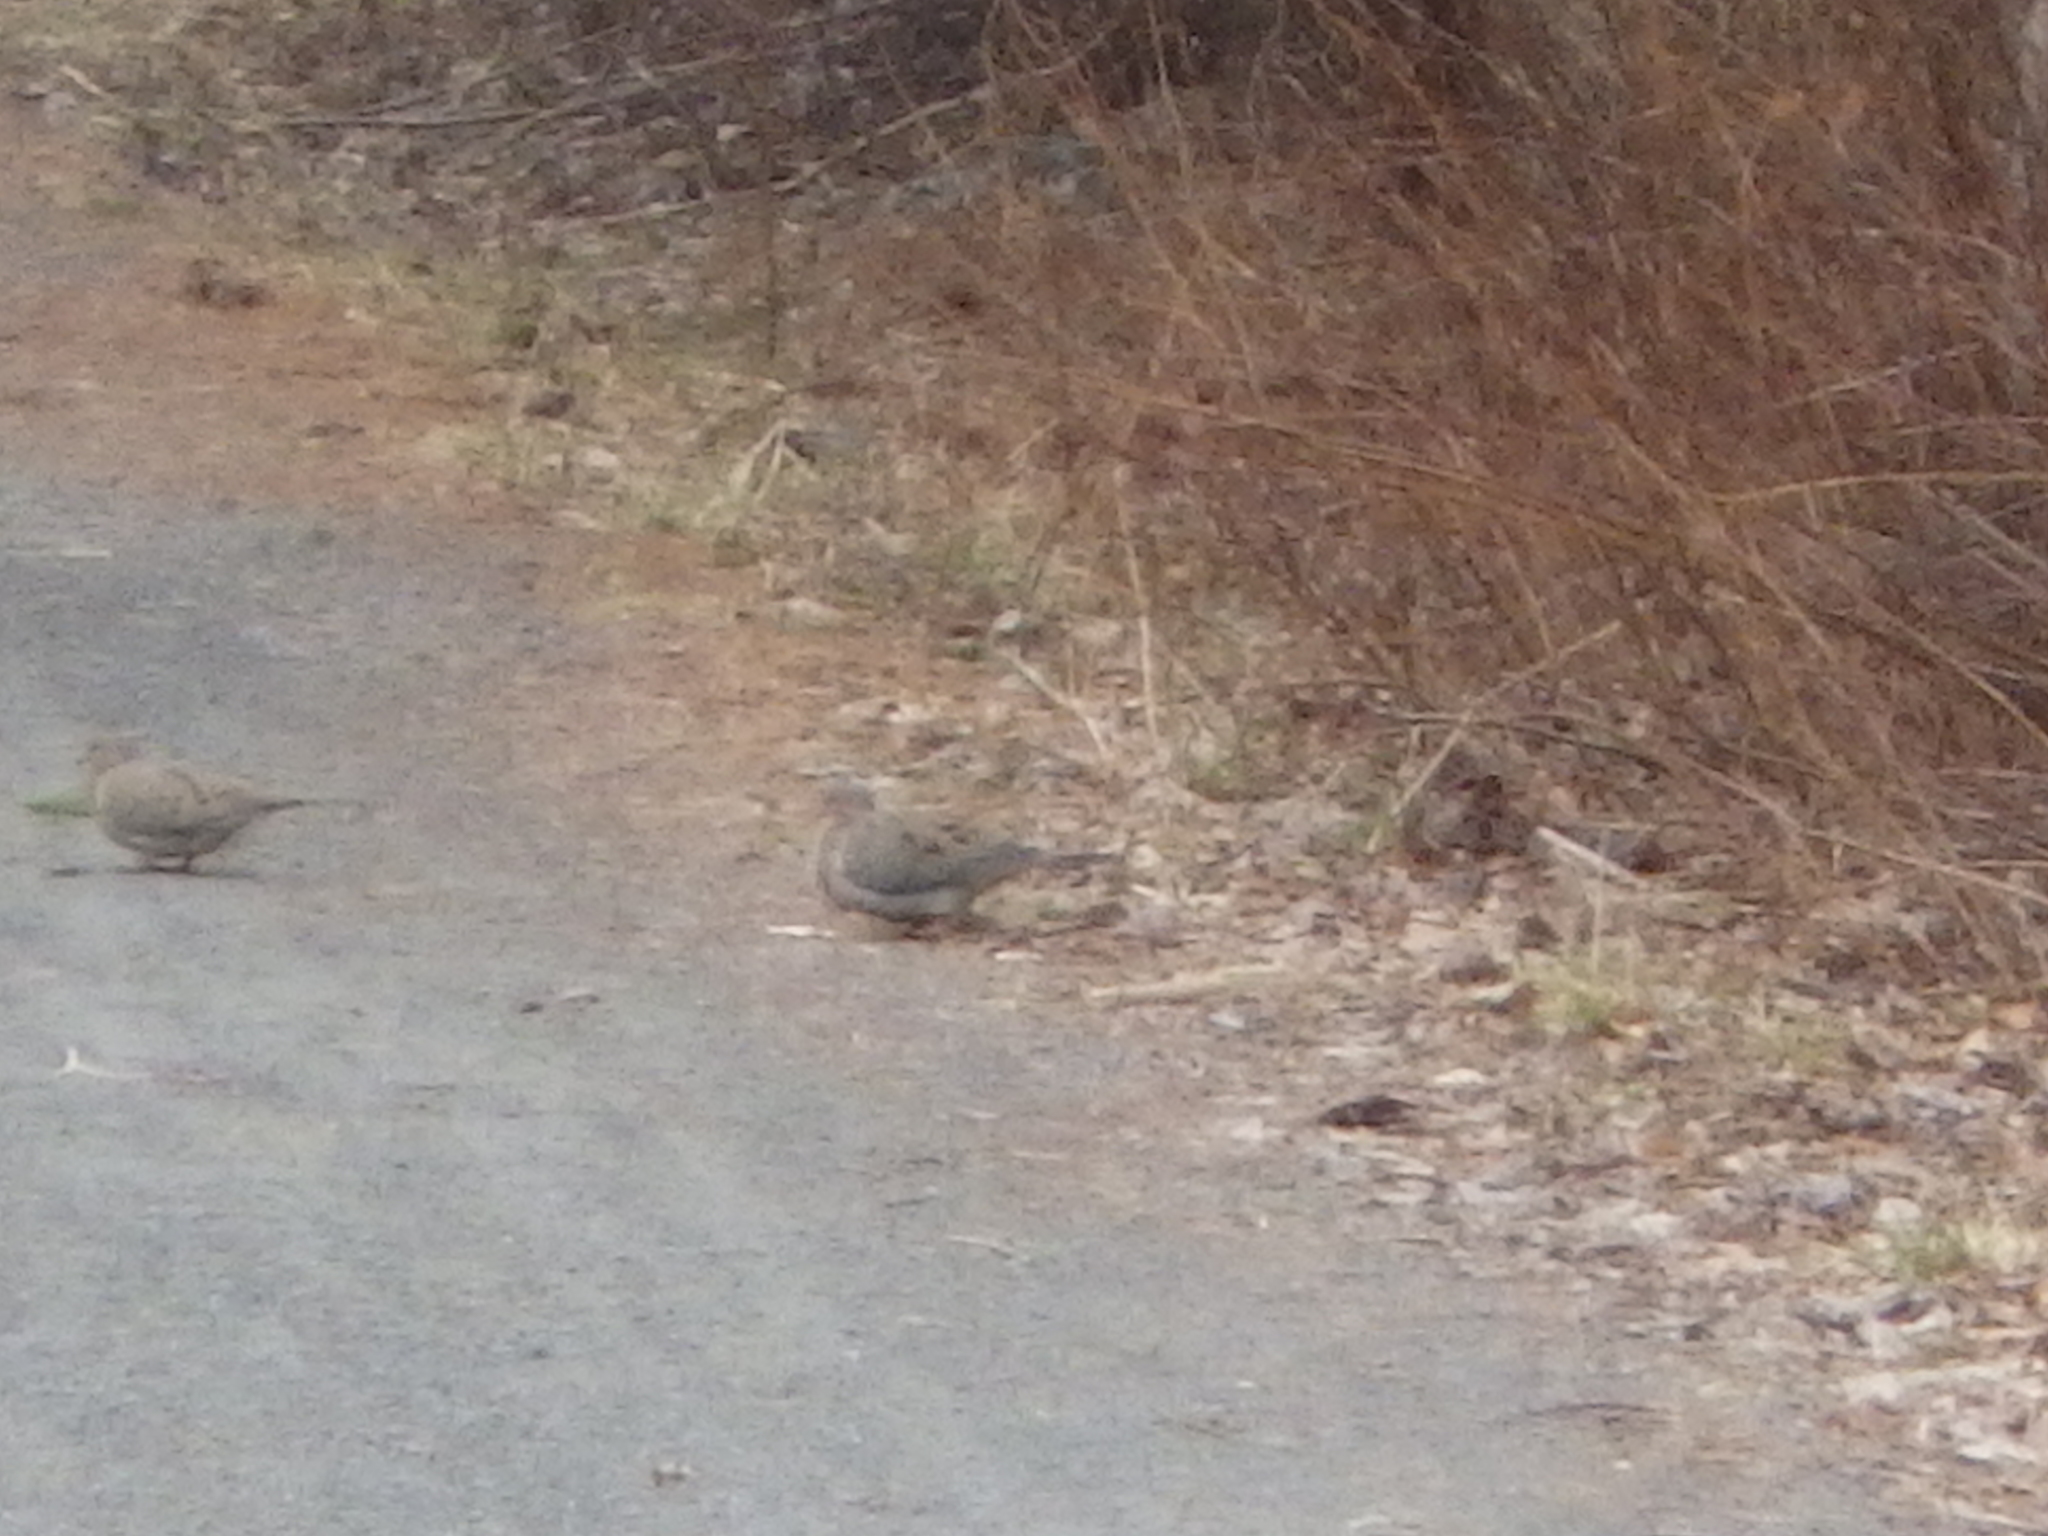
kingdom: Animalia
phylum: Chordata
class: Aves
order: Columbiformes
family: Columbidae
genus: Zenaida
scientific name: Zenaida macroura
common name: Mourning dove
